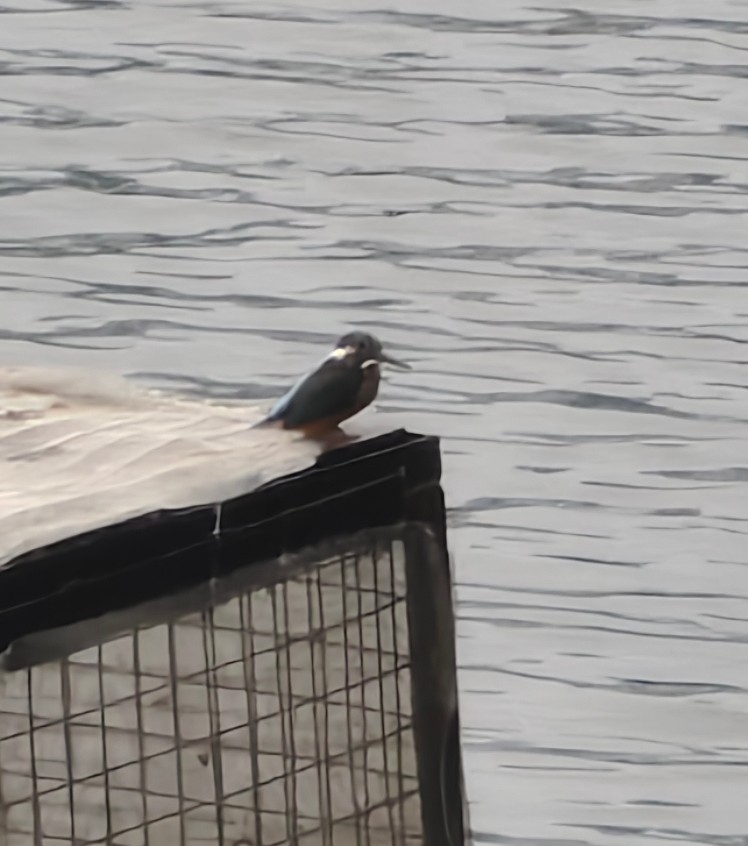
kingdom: Animalia
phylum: Chordata
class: Aves
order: Coraciiformes
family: Alcedinidae
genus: Alcedo
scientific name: Alcedo atthis
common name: Common kingfisher
